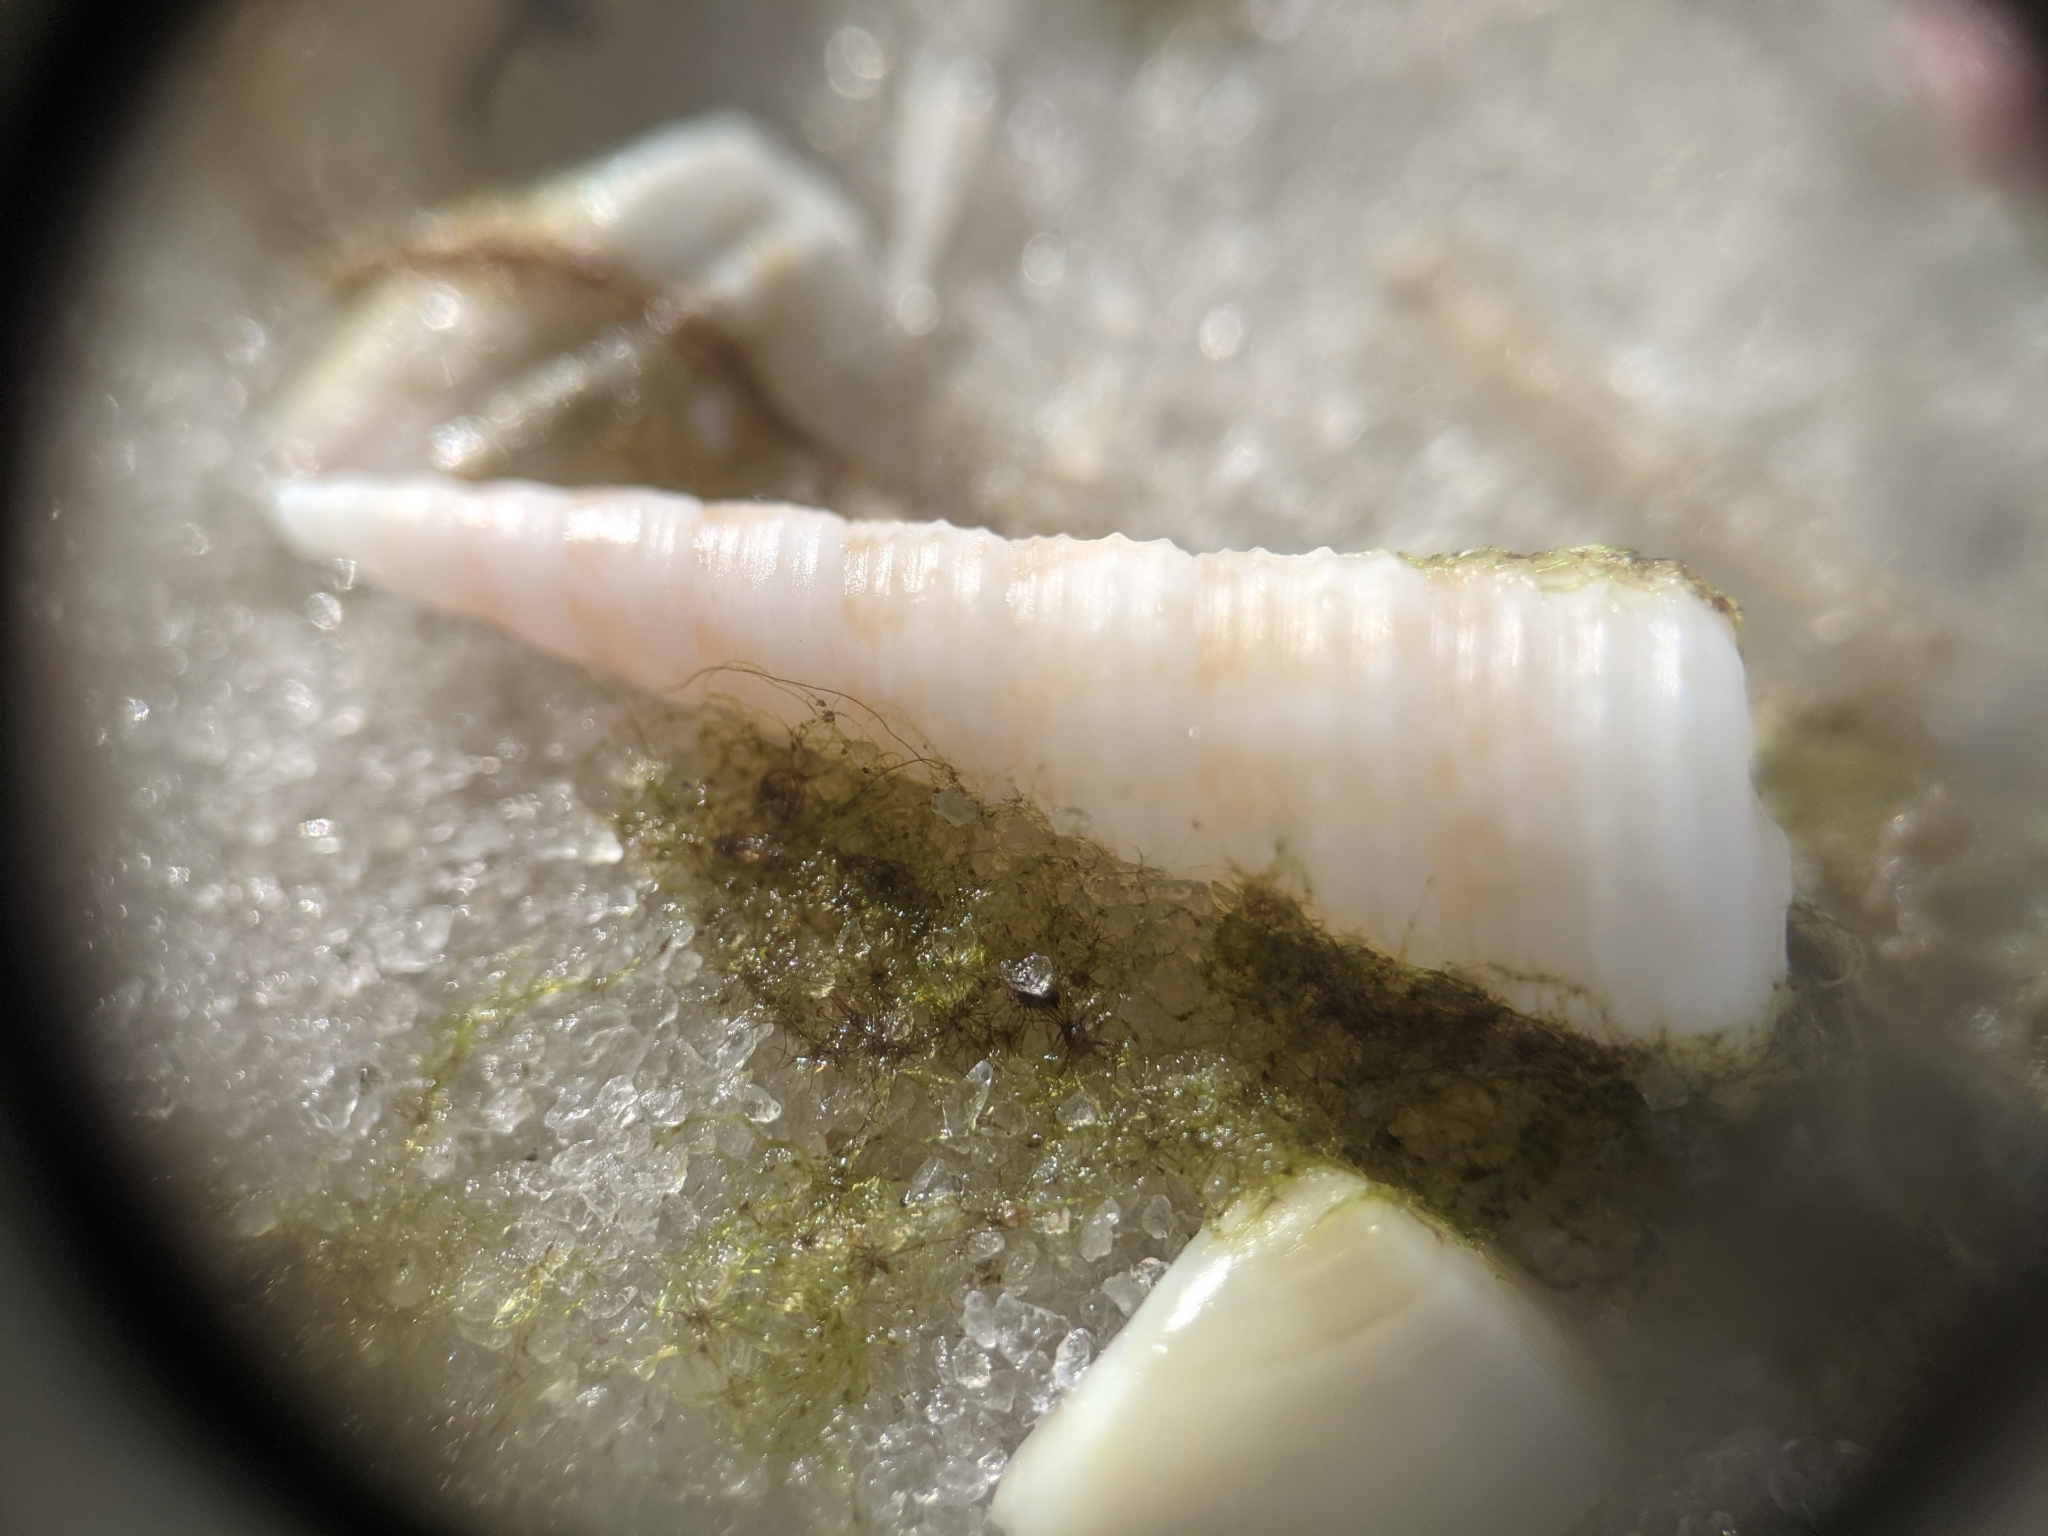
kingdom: Animalia
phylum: Mollusca
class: Gastropoda
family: Turritellidae
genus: Turritella
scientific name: Turritella acropora
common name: Boring turretsnail
